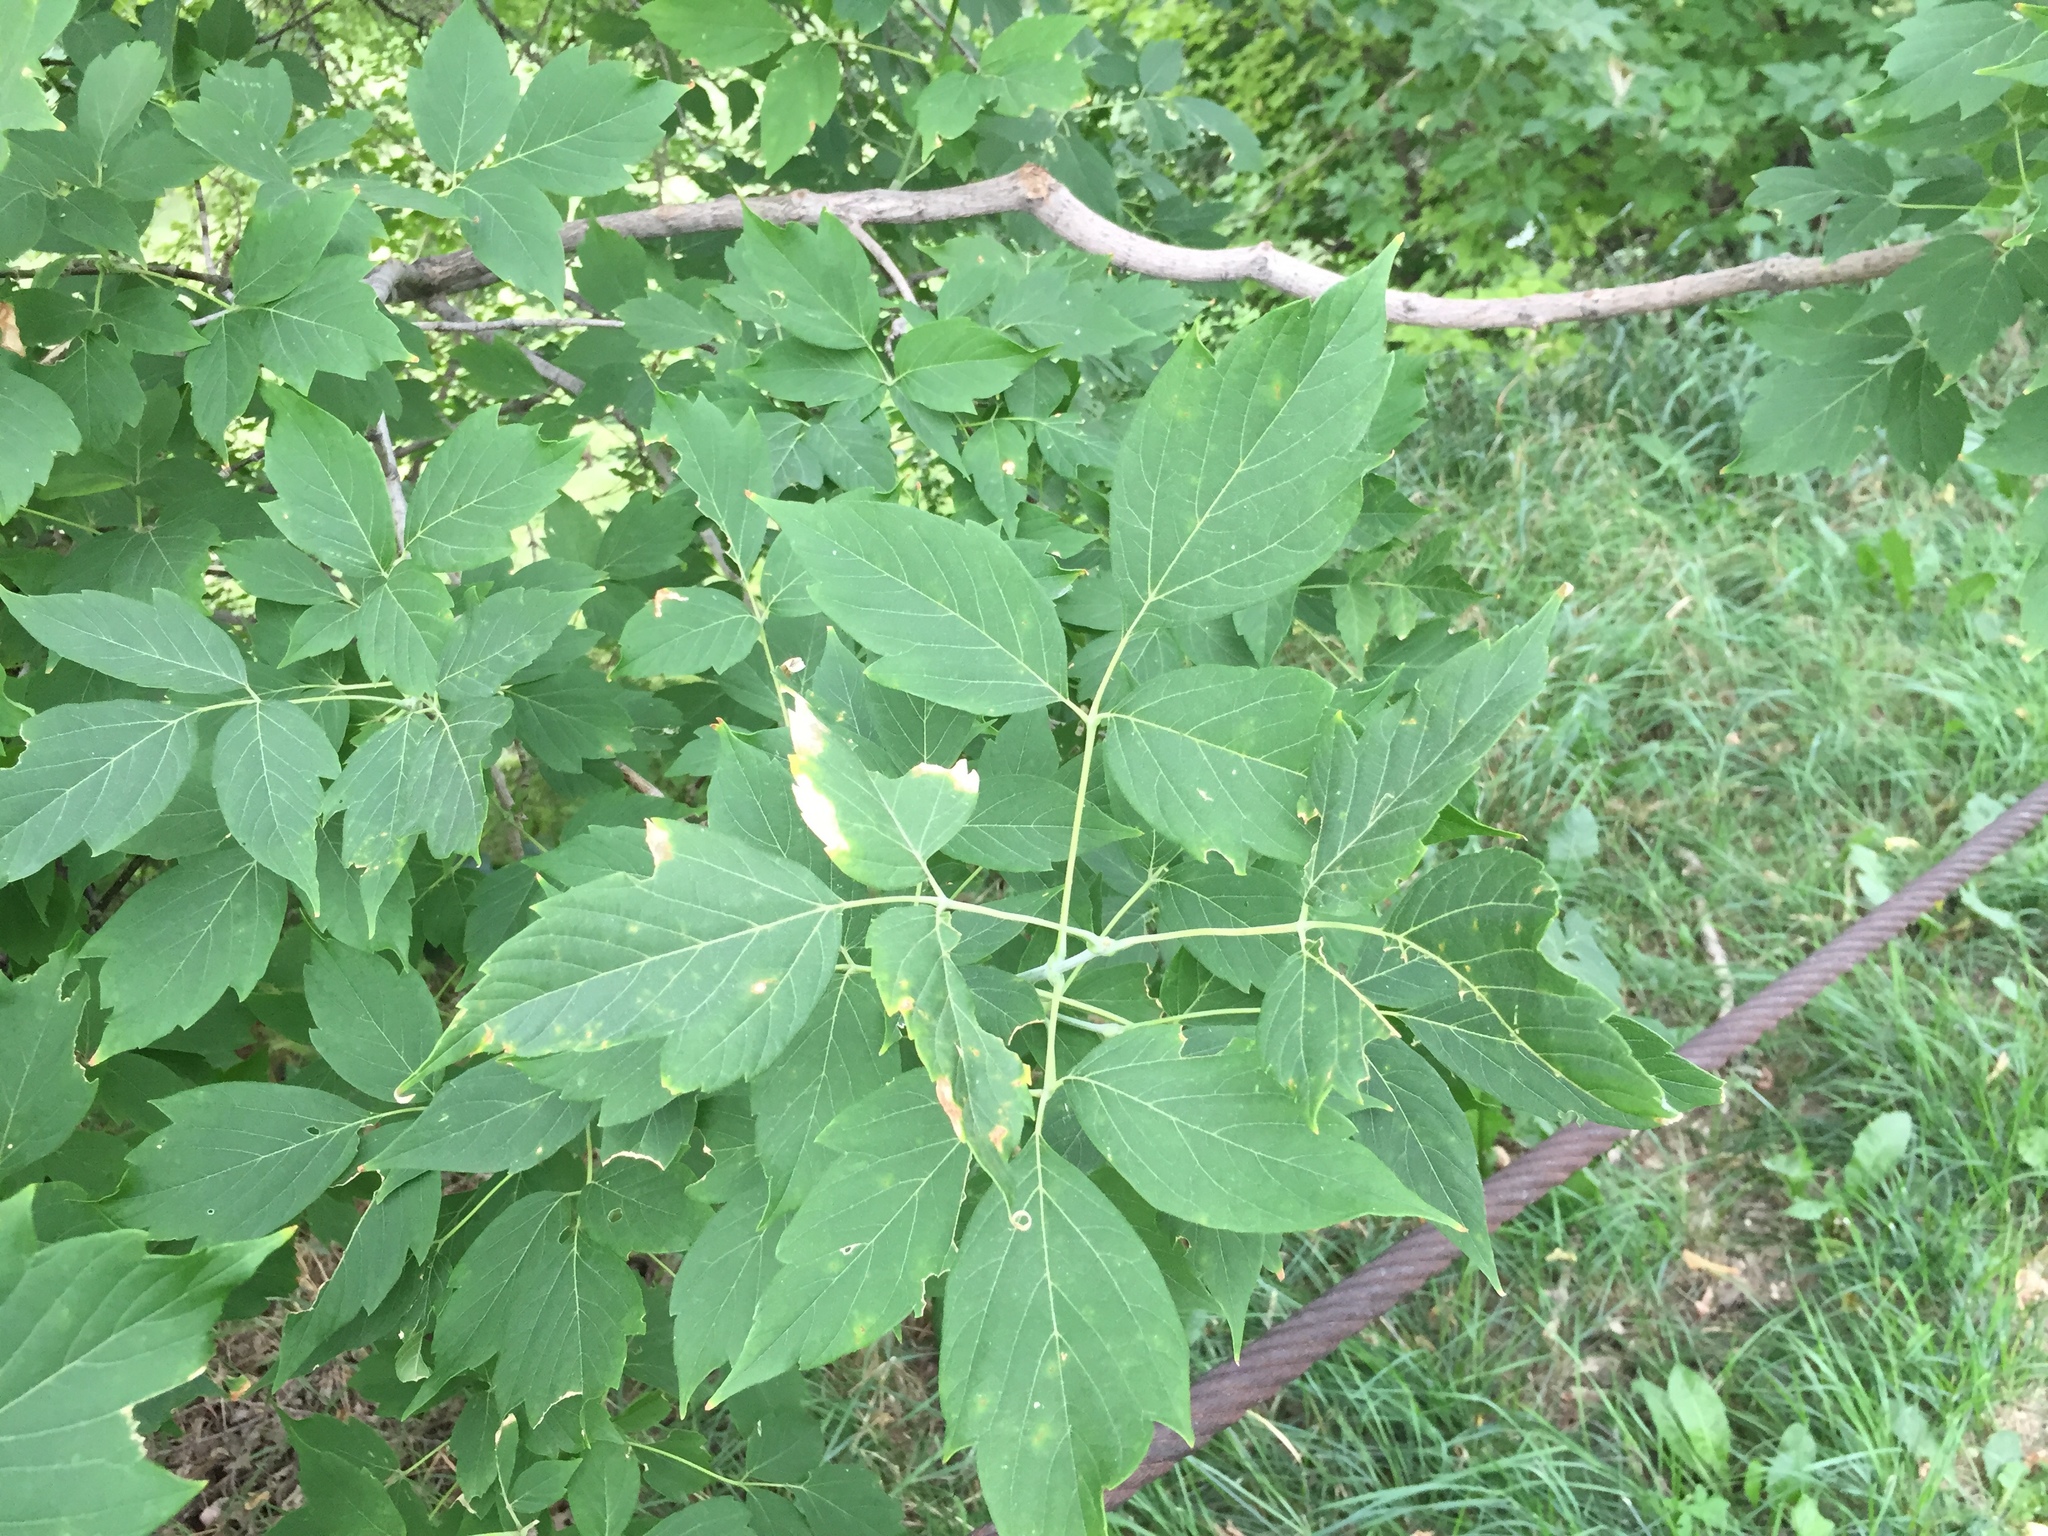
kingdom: Plantae
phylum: Tracheophyta
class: Magnoliopsida
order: Sapindales
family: Sapindaceae
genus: Acer
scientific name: Acer negundo
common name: Ashleaf maple
